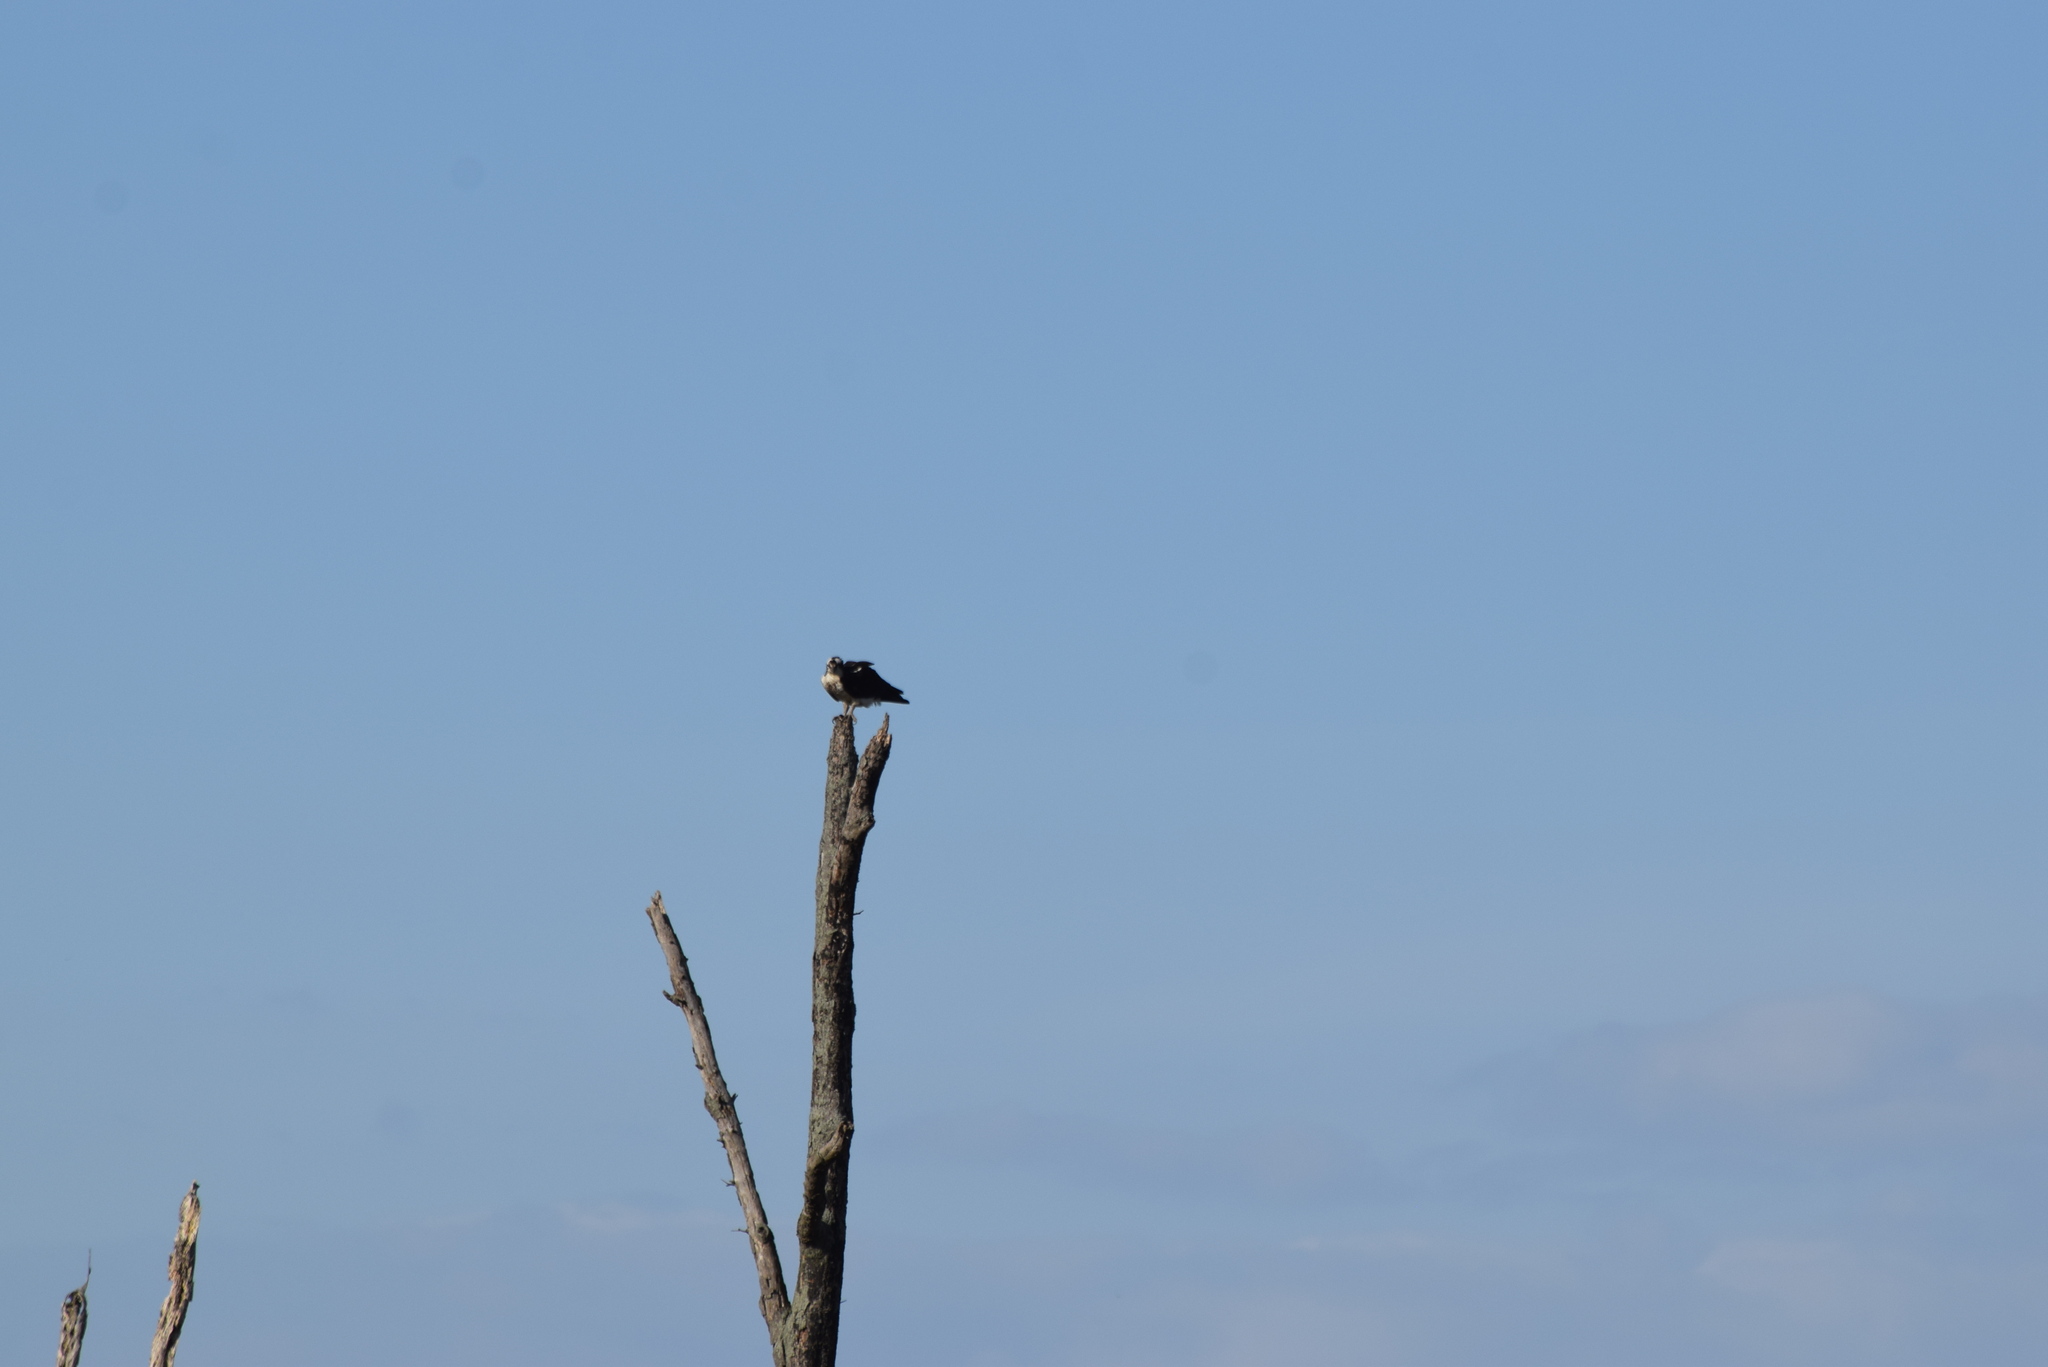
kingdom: Animalia
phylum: Chordata
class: Aves
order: Accipitriformes
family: Pandionidae
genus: Pandion
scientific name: Pandion haliaetus
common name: Osprey
